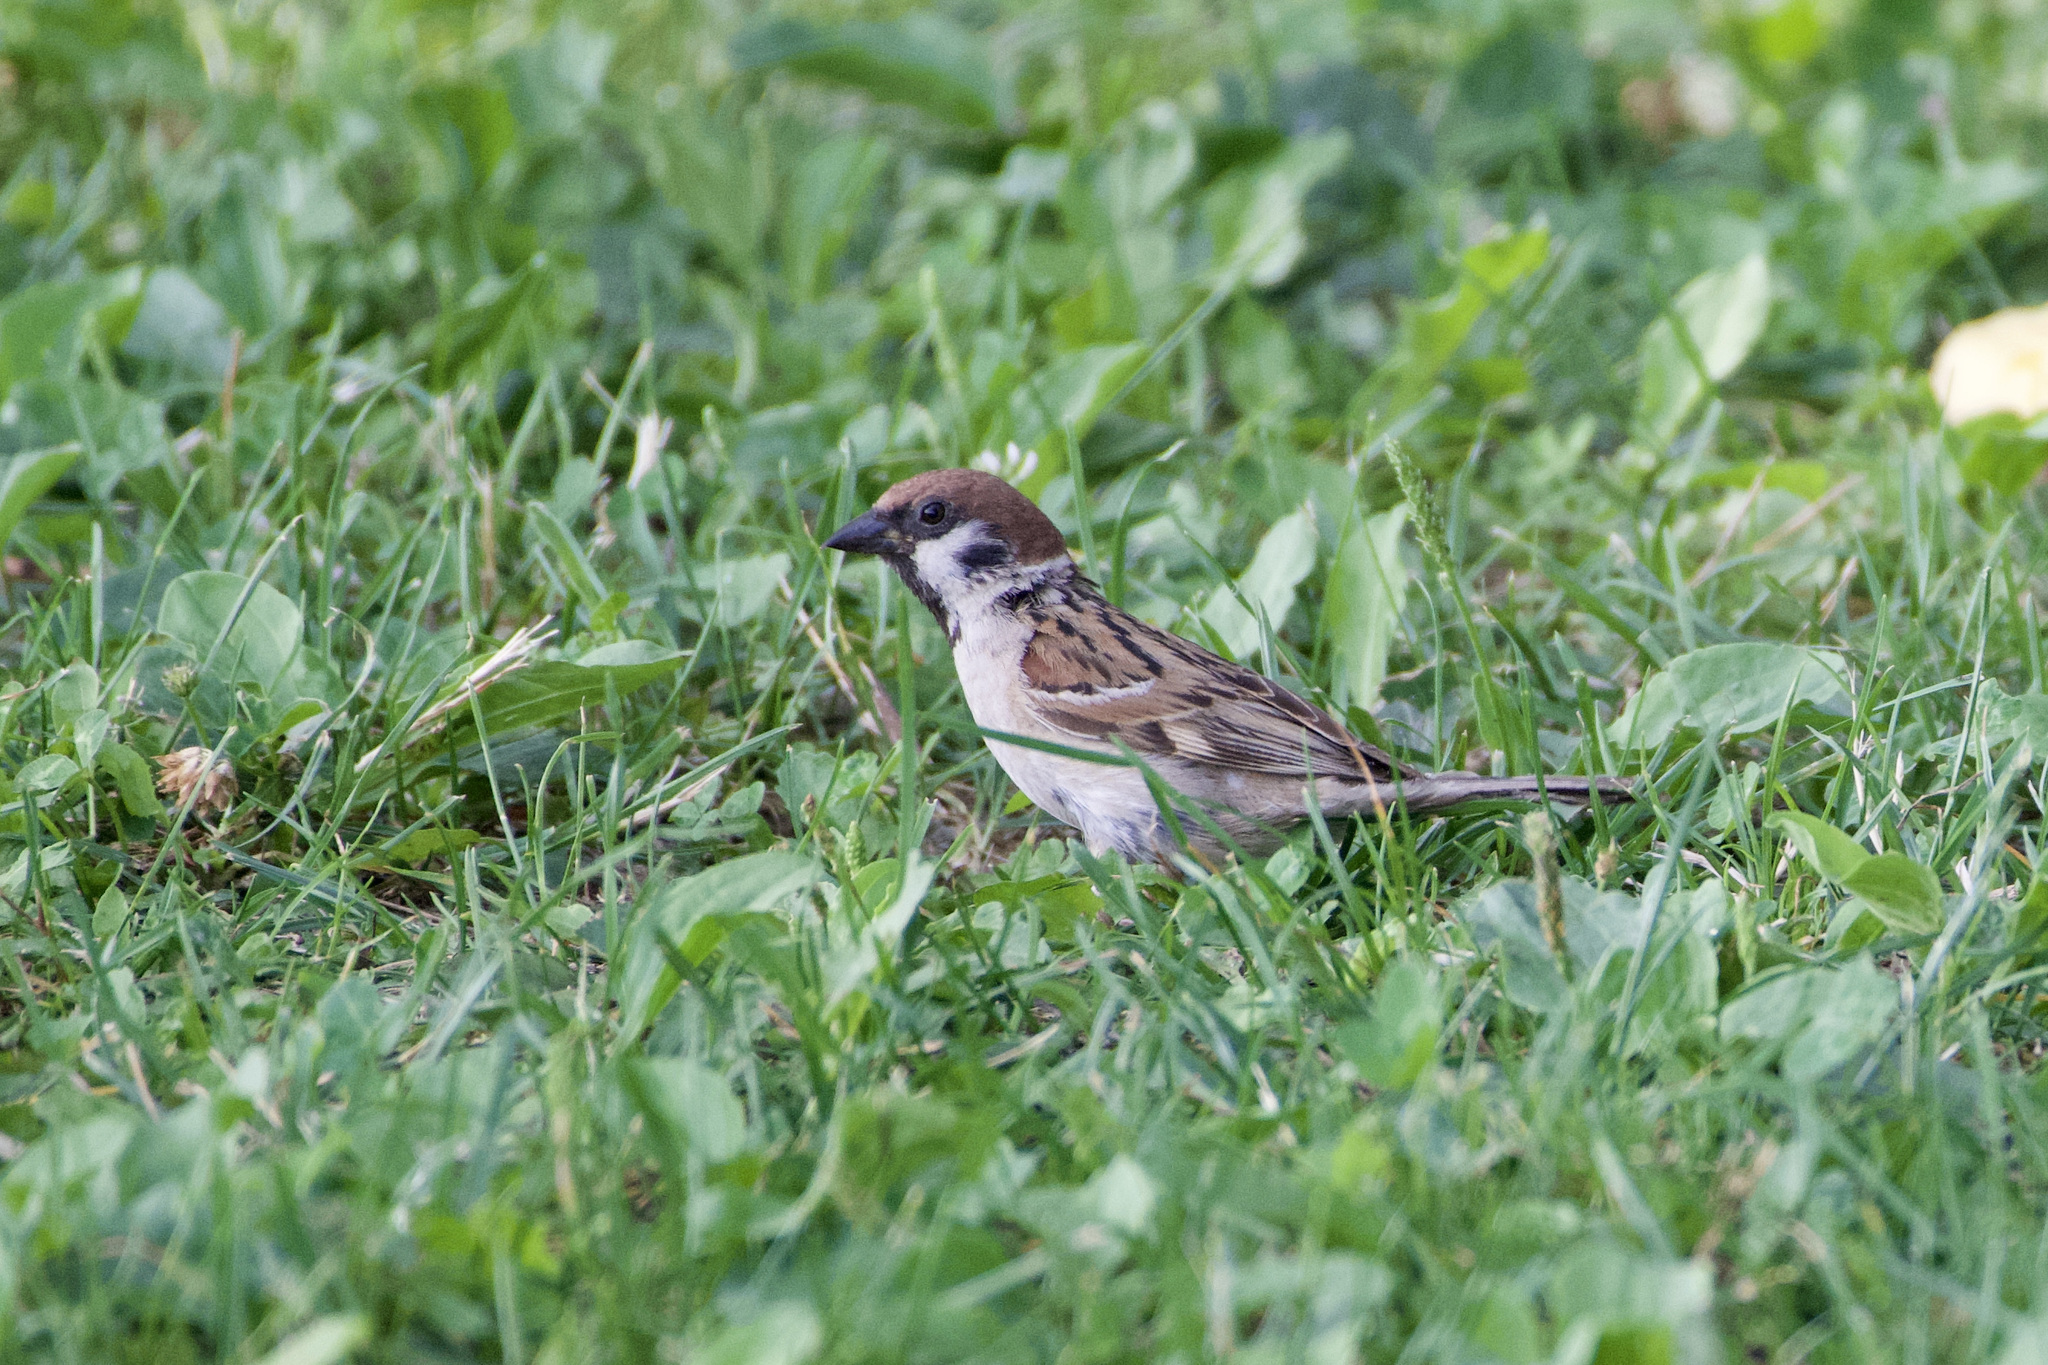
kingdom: Animalia
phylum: Chordata
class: Aves
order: Passeriformes
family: Passeridae
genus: Passer
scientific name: Passer montanus
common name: Eurasian tree sparrow
